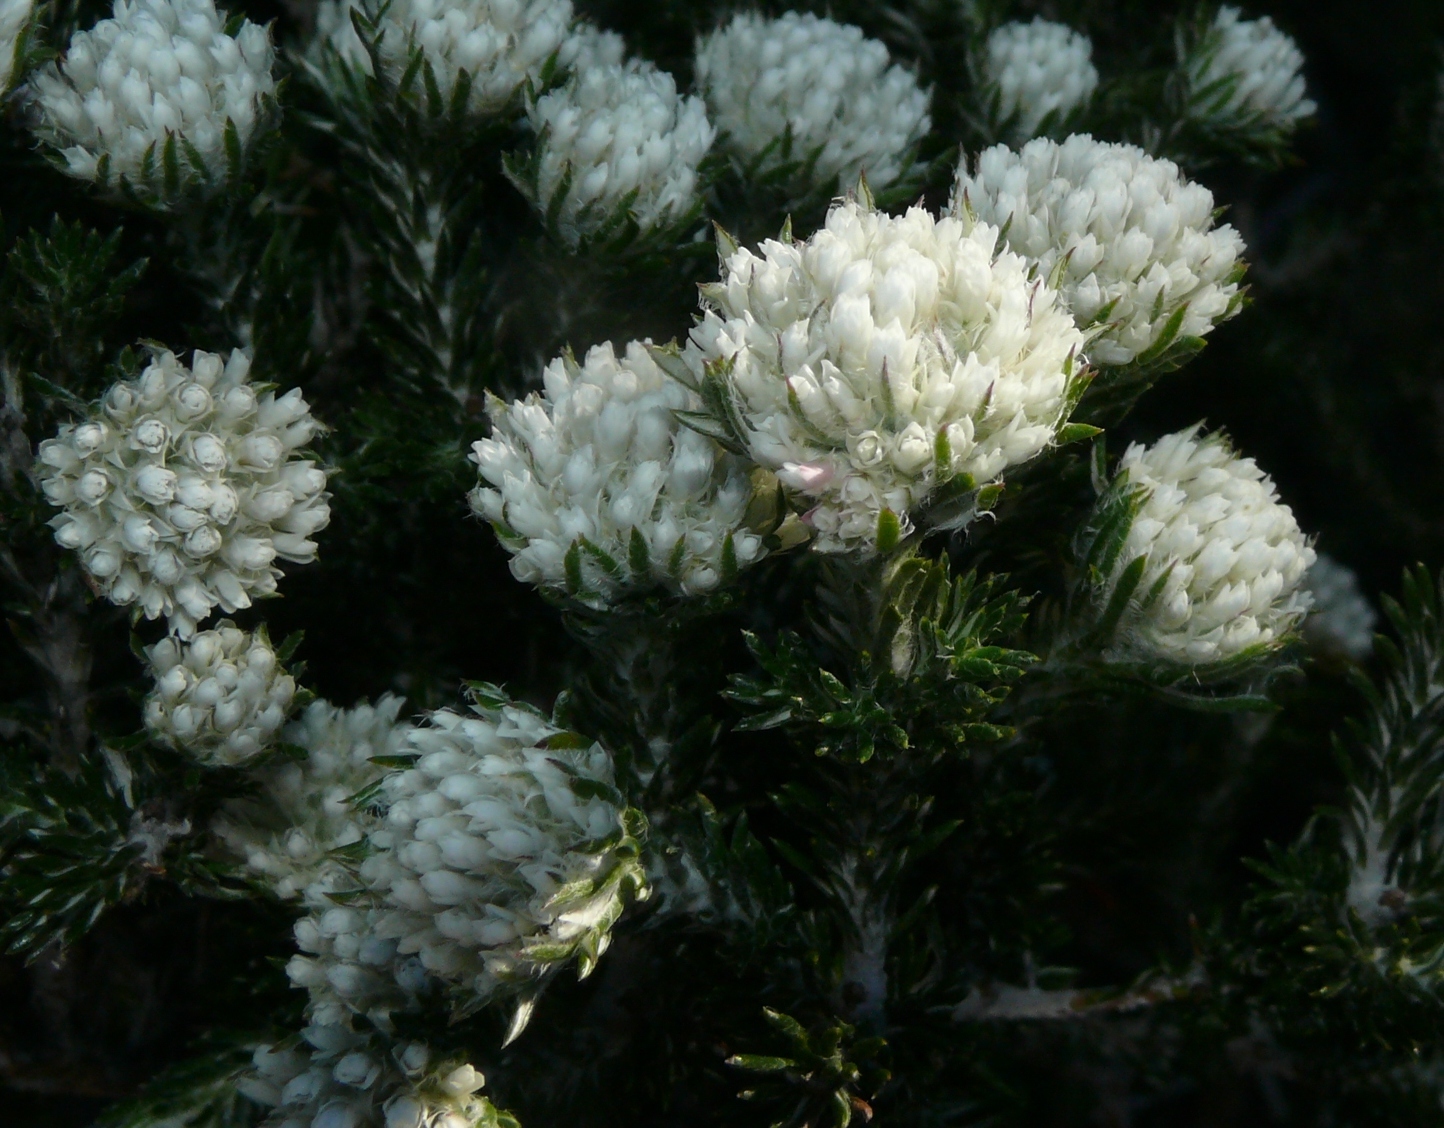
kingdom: Plantae
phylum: Tracheophyta
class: Magnoliopsida
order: Asterales
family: Asteraceae
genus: Metalasia
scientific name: Metalasia compacta
